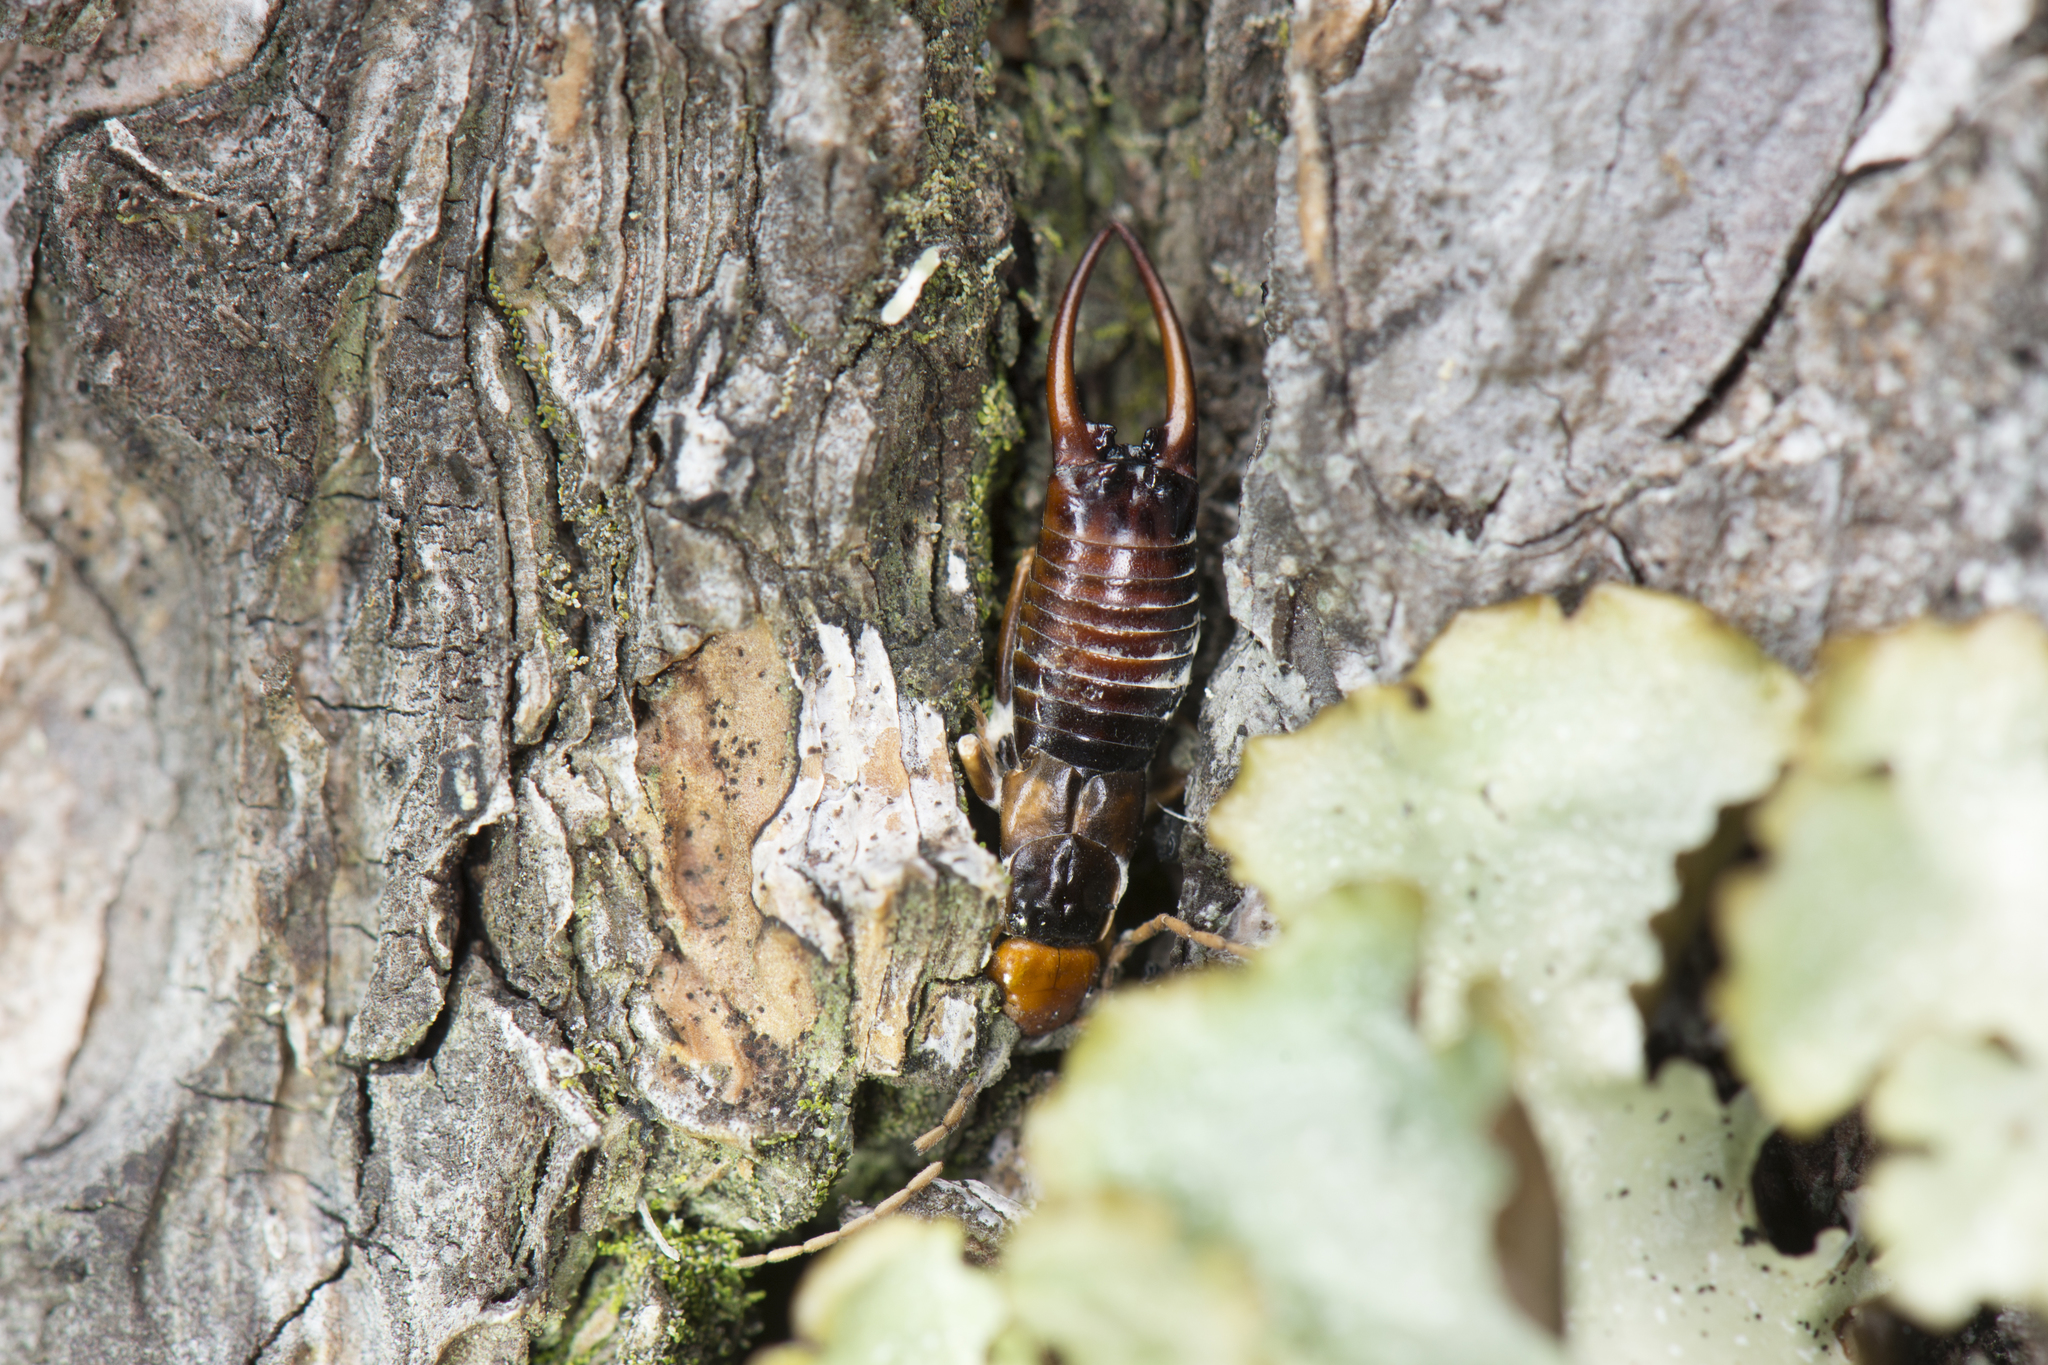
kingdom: Animalia
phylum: Arthropoda
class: Insecta
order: Dermaptera
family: Forficulidae
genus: Apterygida
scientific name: Apterygida tuberculosa
